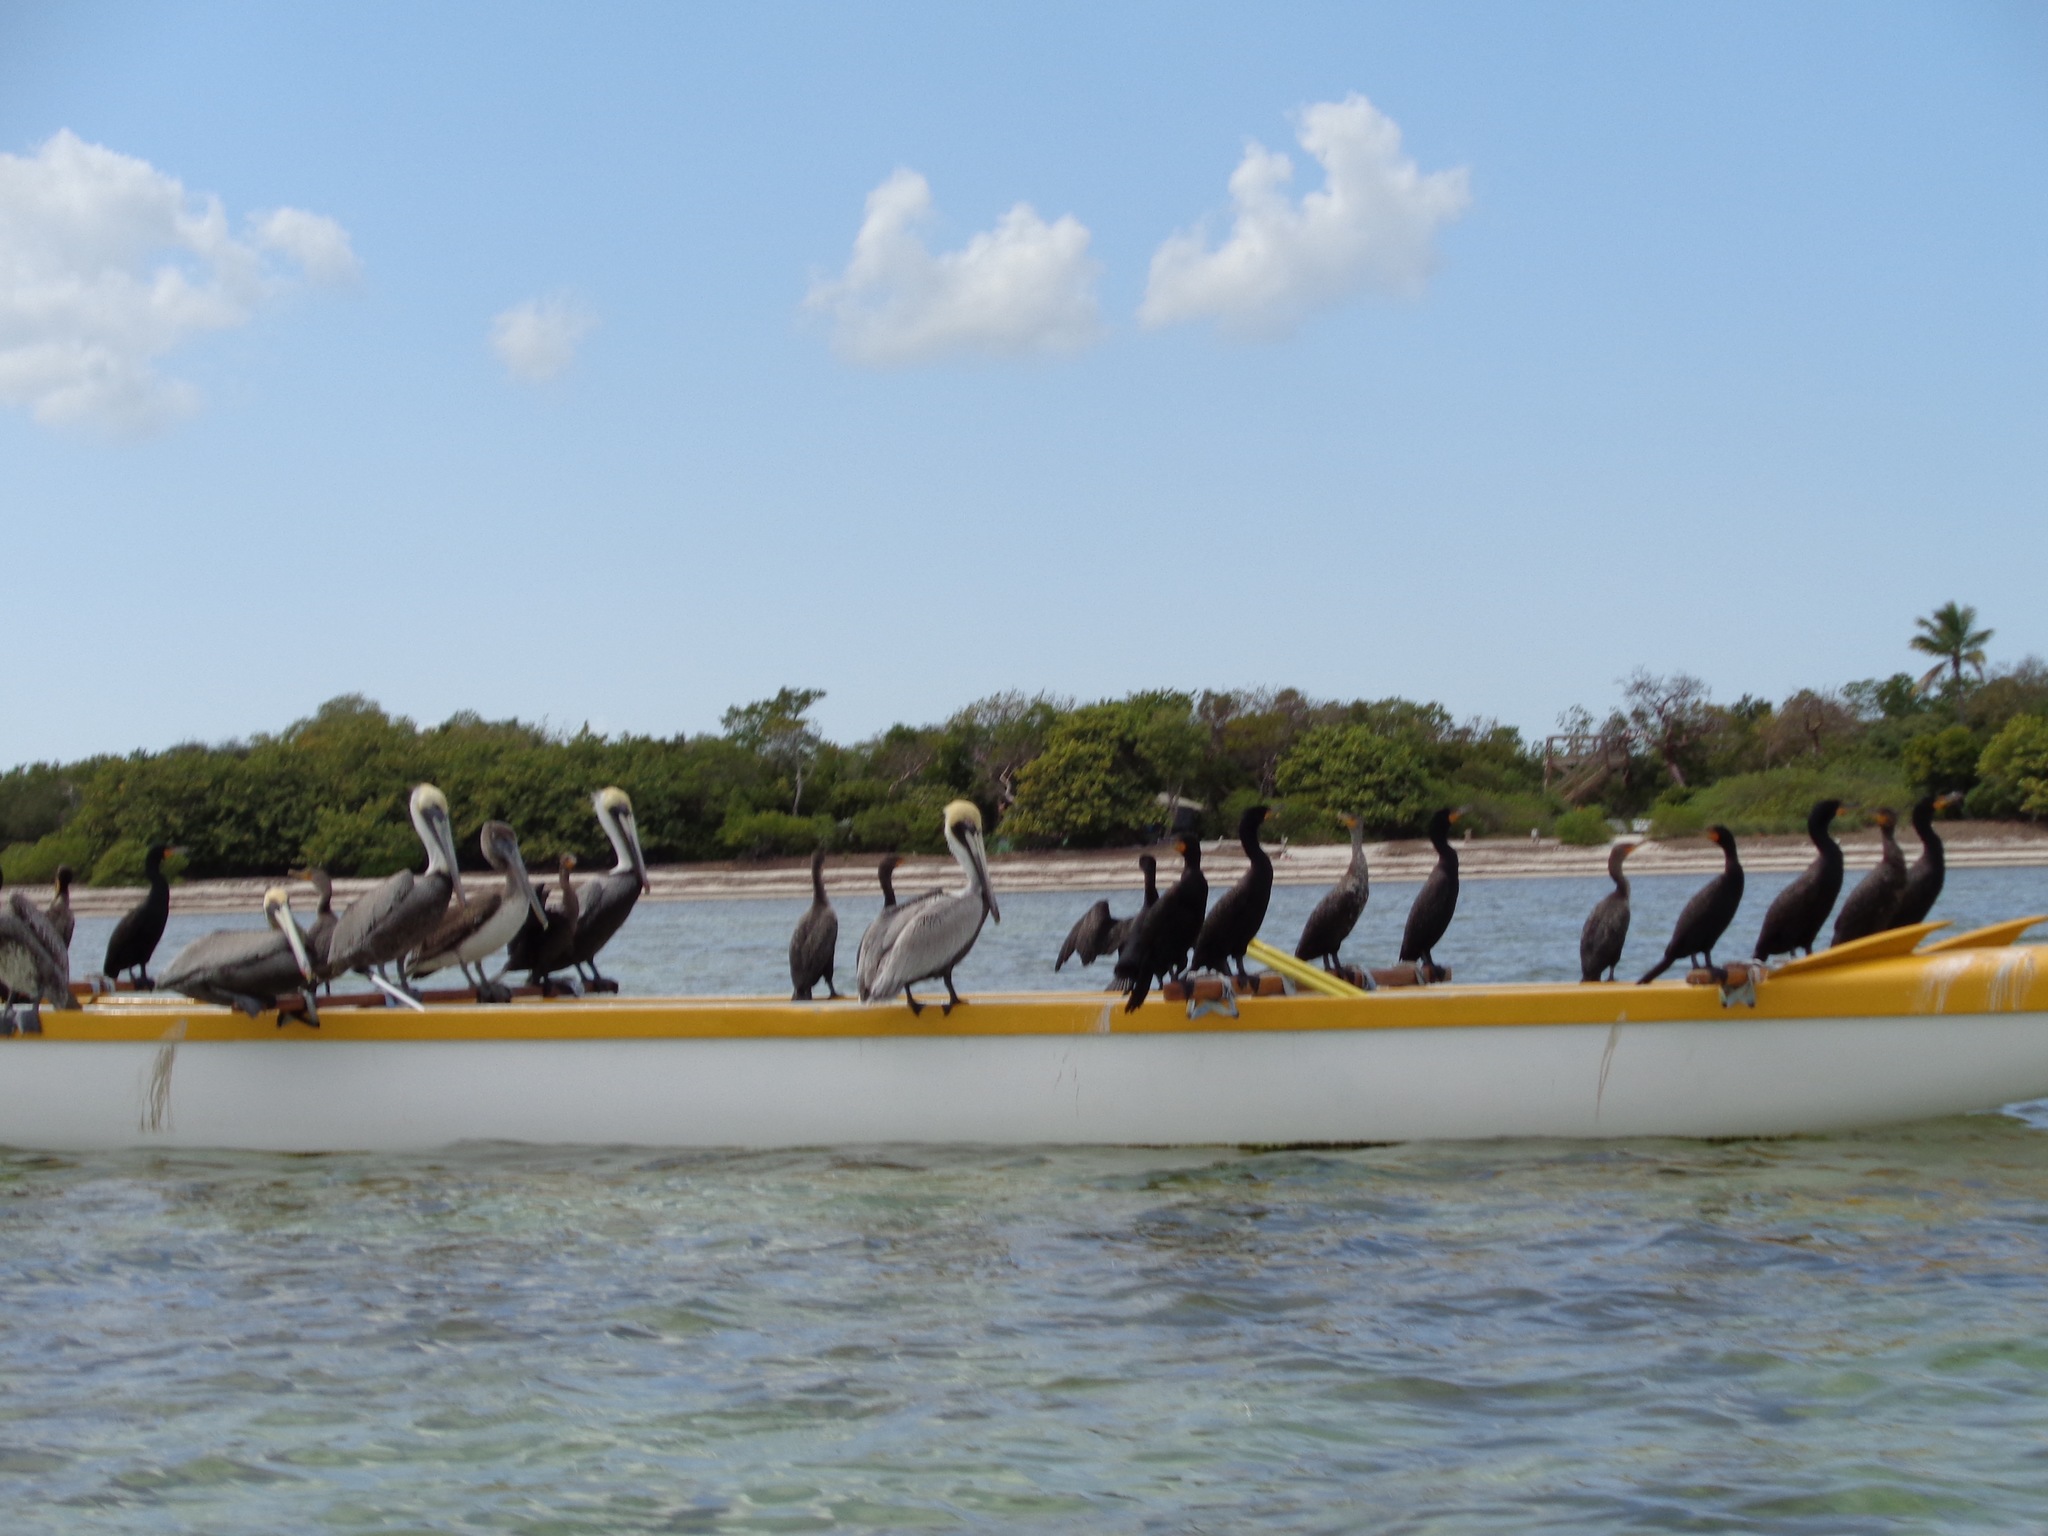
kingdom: Animalia
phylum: Chordata
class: Aves
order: Suliformes
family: Phalacrocoracidae
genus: Phalacrocorax
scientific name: Phalacrocorax auritus
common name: Double-crested cormorant
